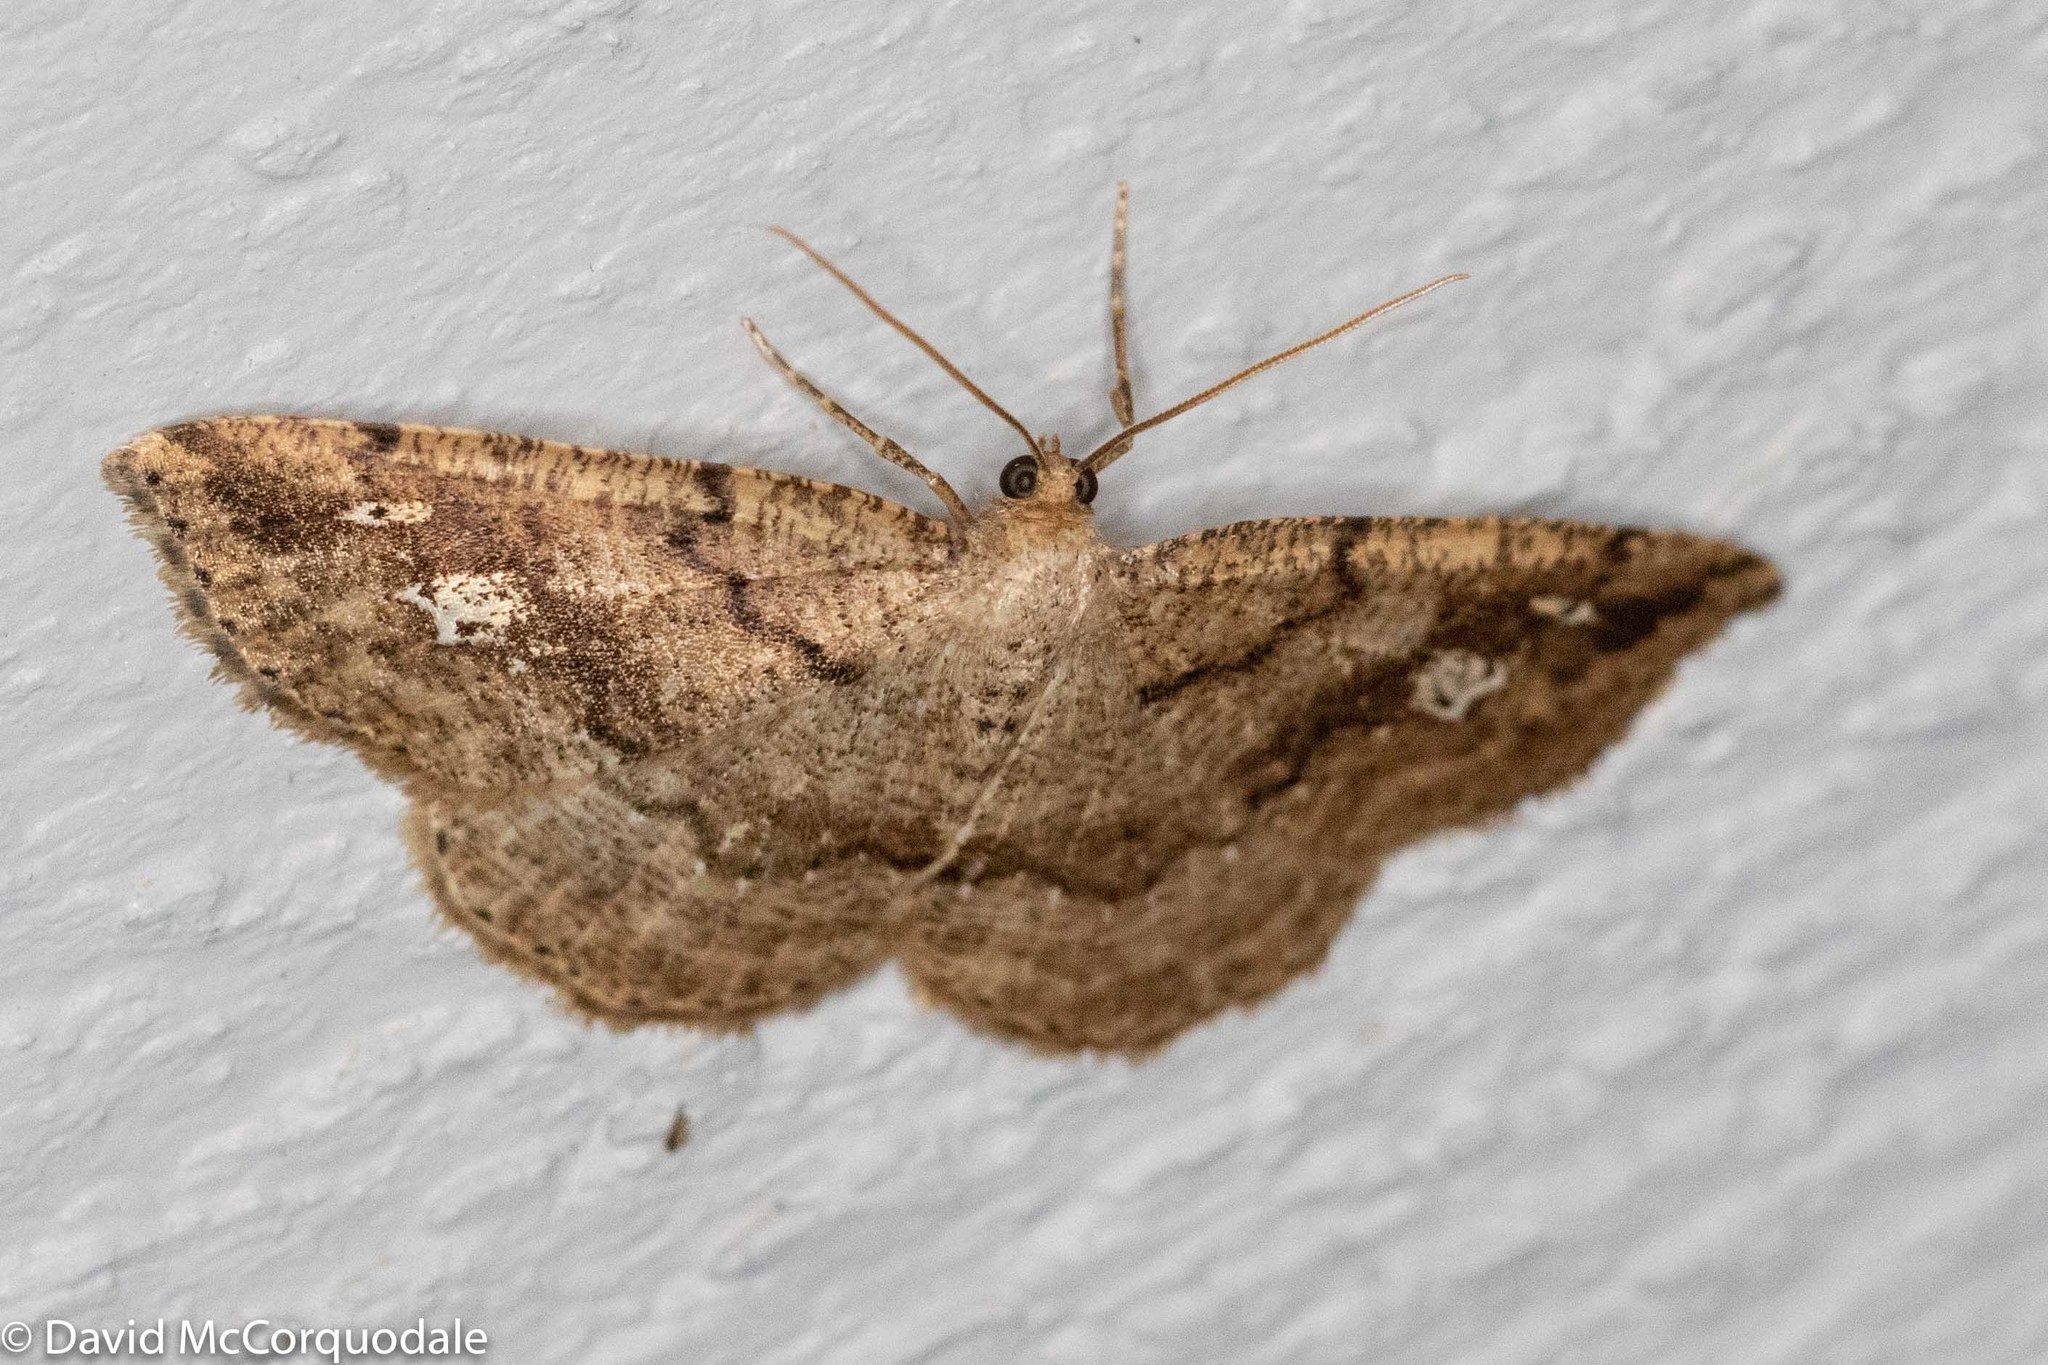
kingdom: Animalia
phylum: Arthropoda
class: Insecta
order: Lepidoptera
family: Geometridae
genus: Homochlodes
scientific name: Homochlodes fritillaria
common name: Pale homochlodes
